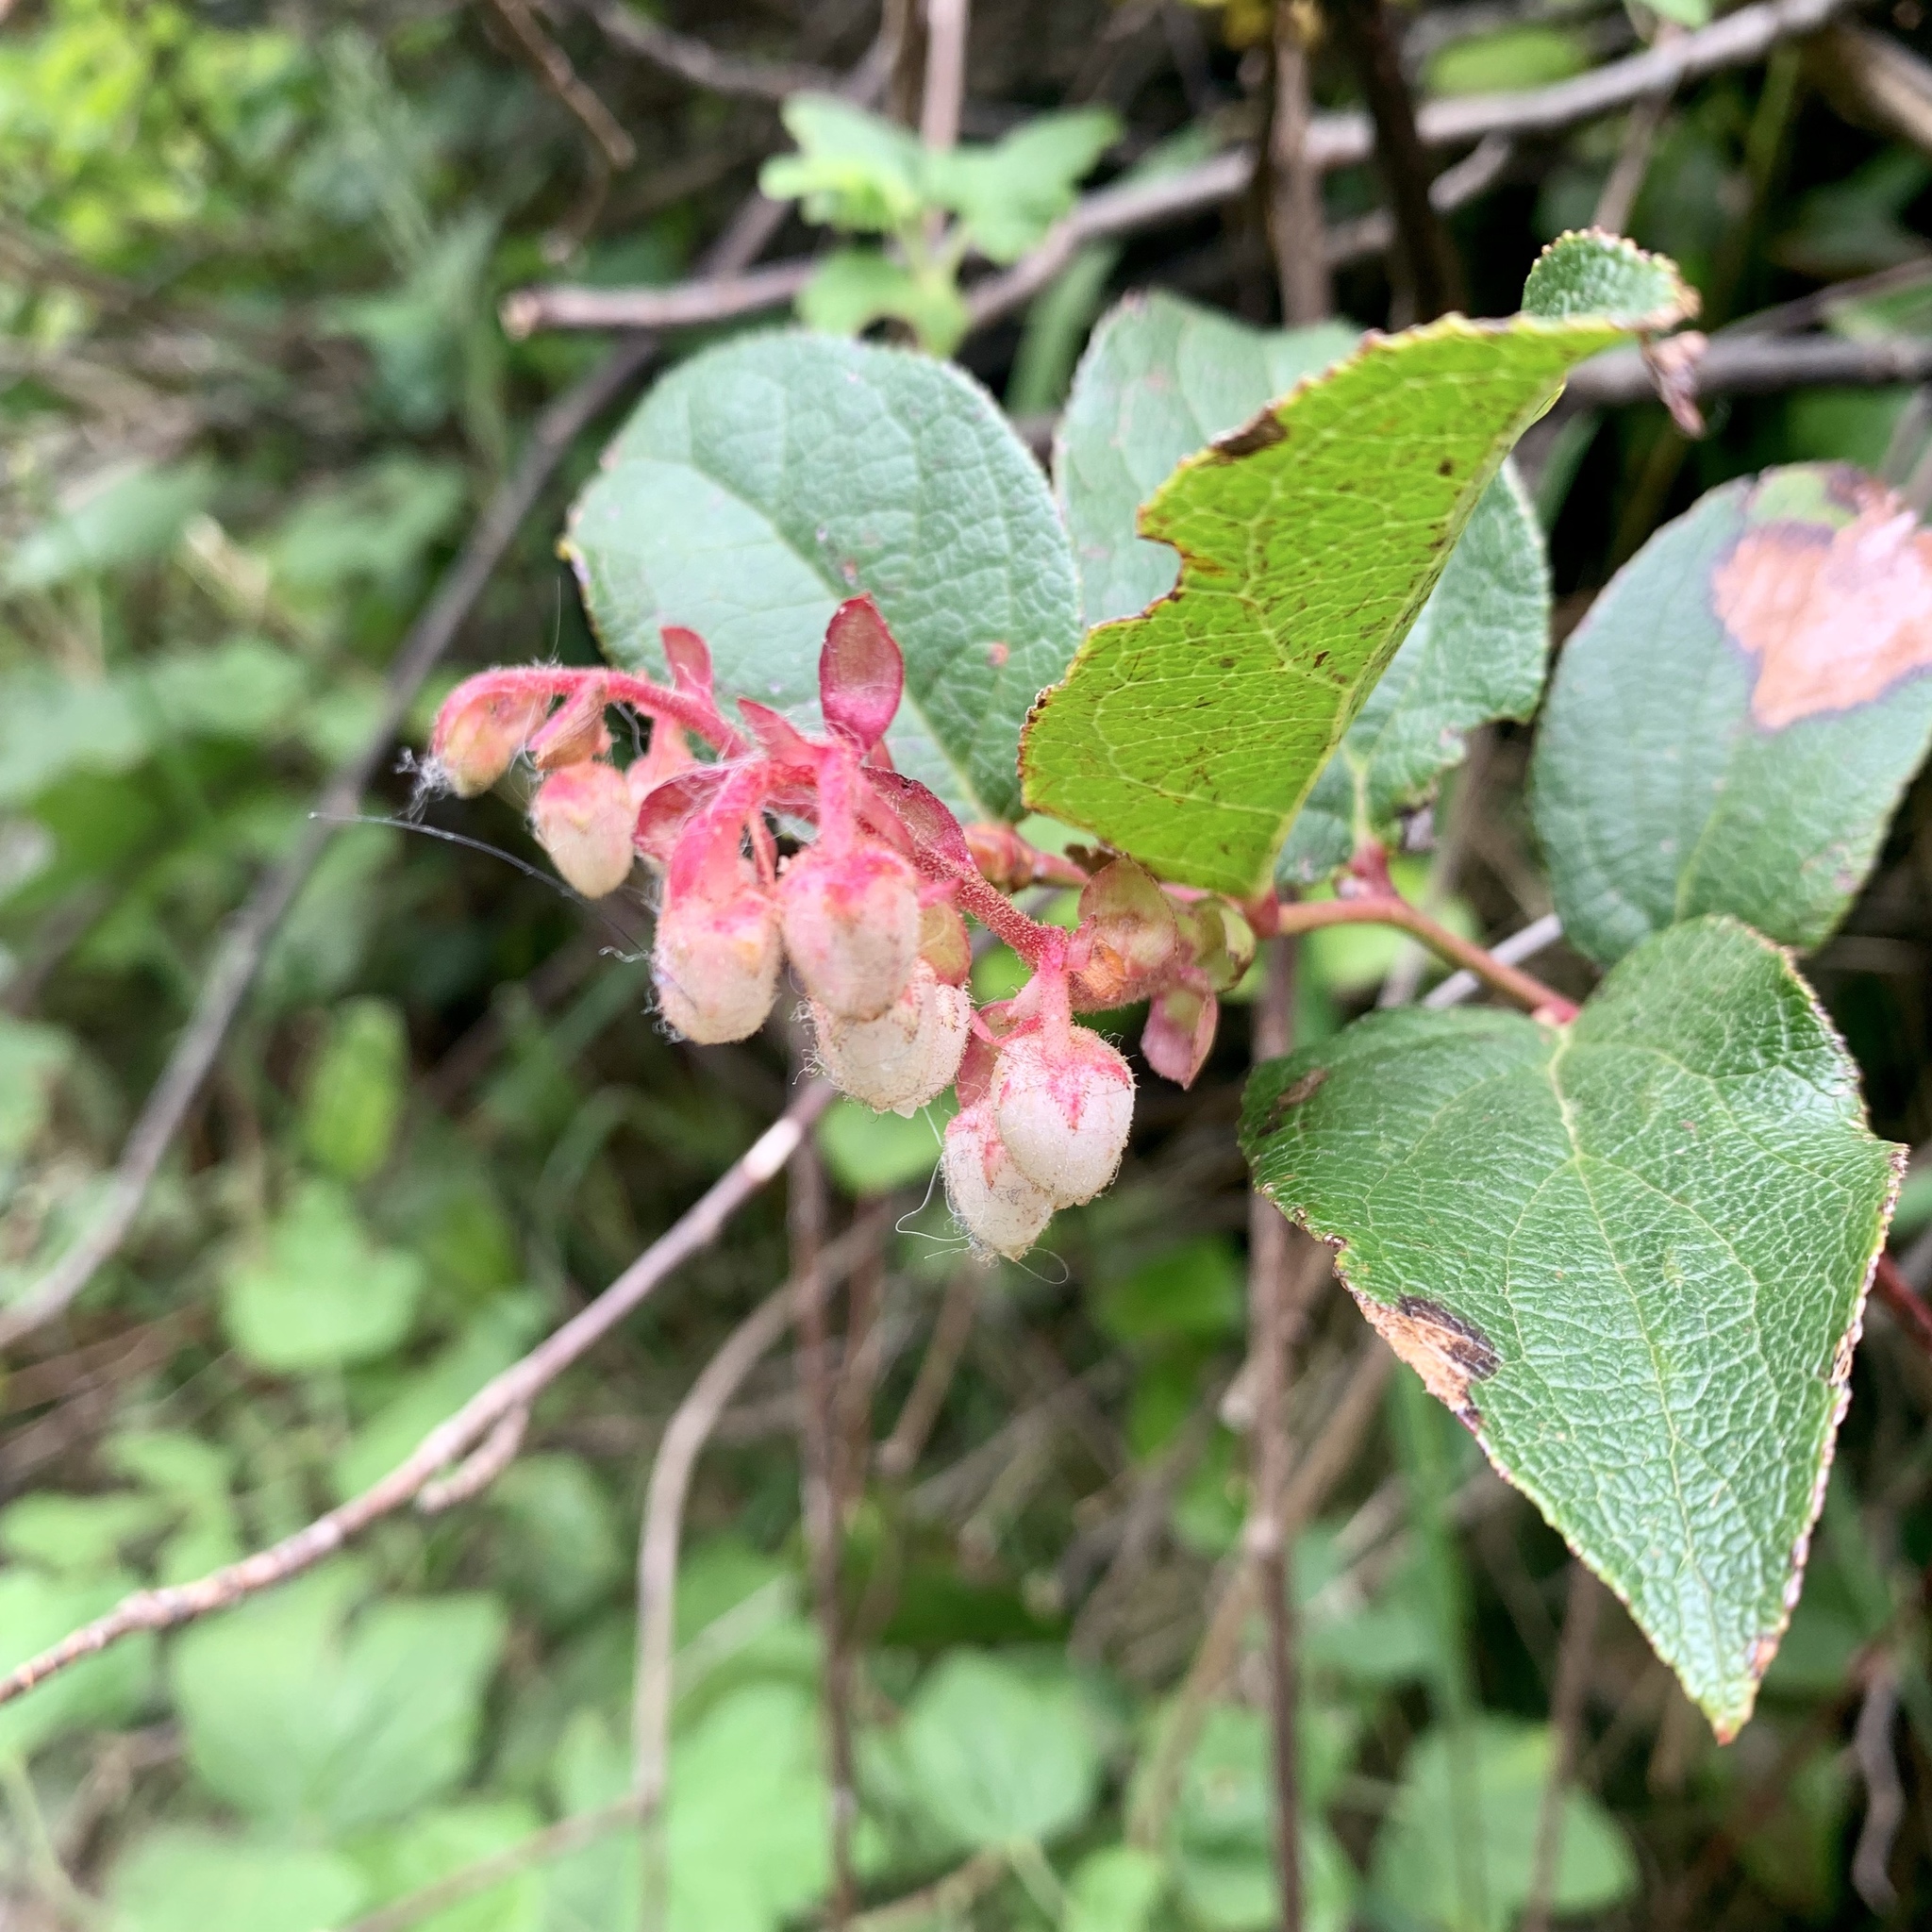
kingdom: Plantae
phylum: Tracheophyta
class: Magnoliopsida
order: Ericales
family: Ericaceae
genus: Gaultheria
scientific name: Gaultheria shallon
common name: Shallon
